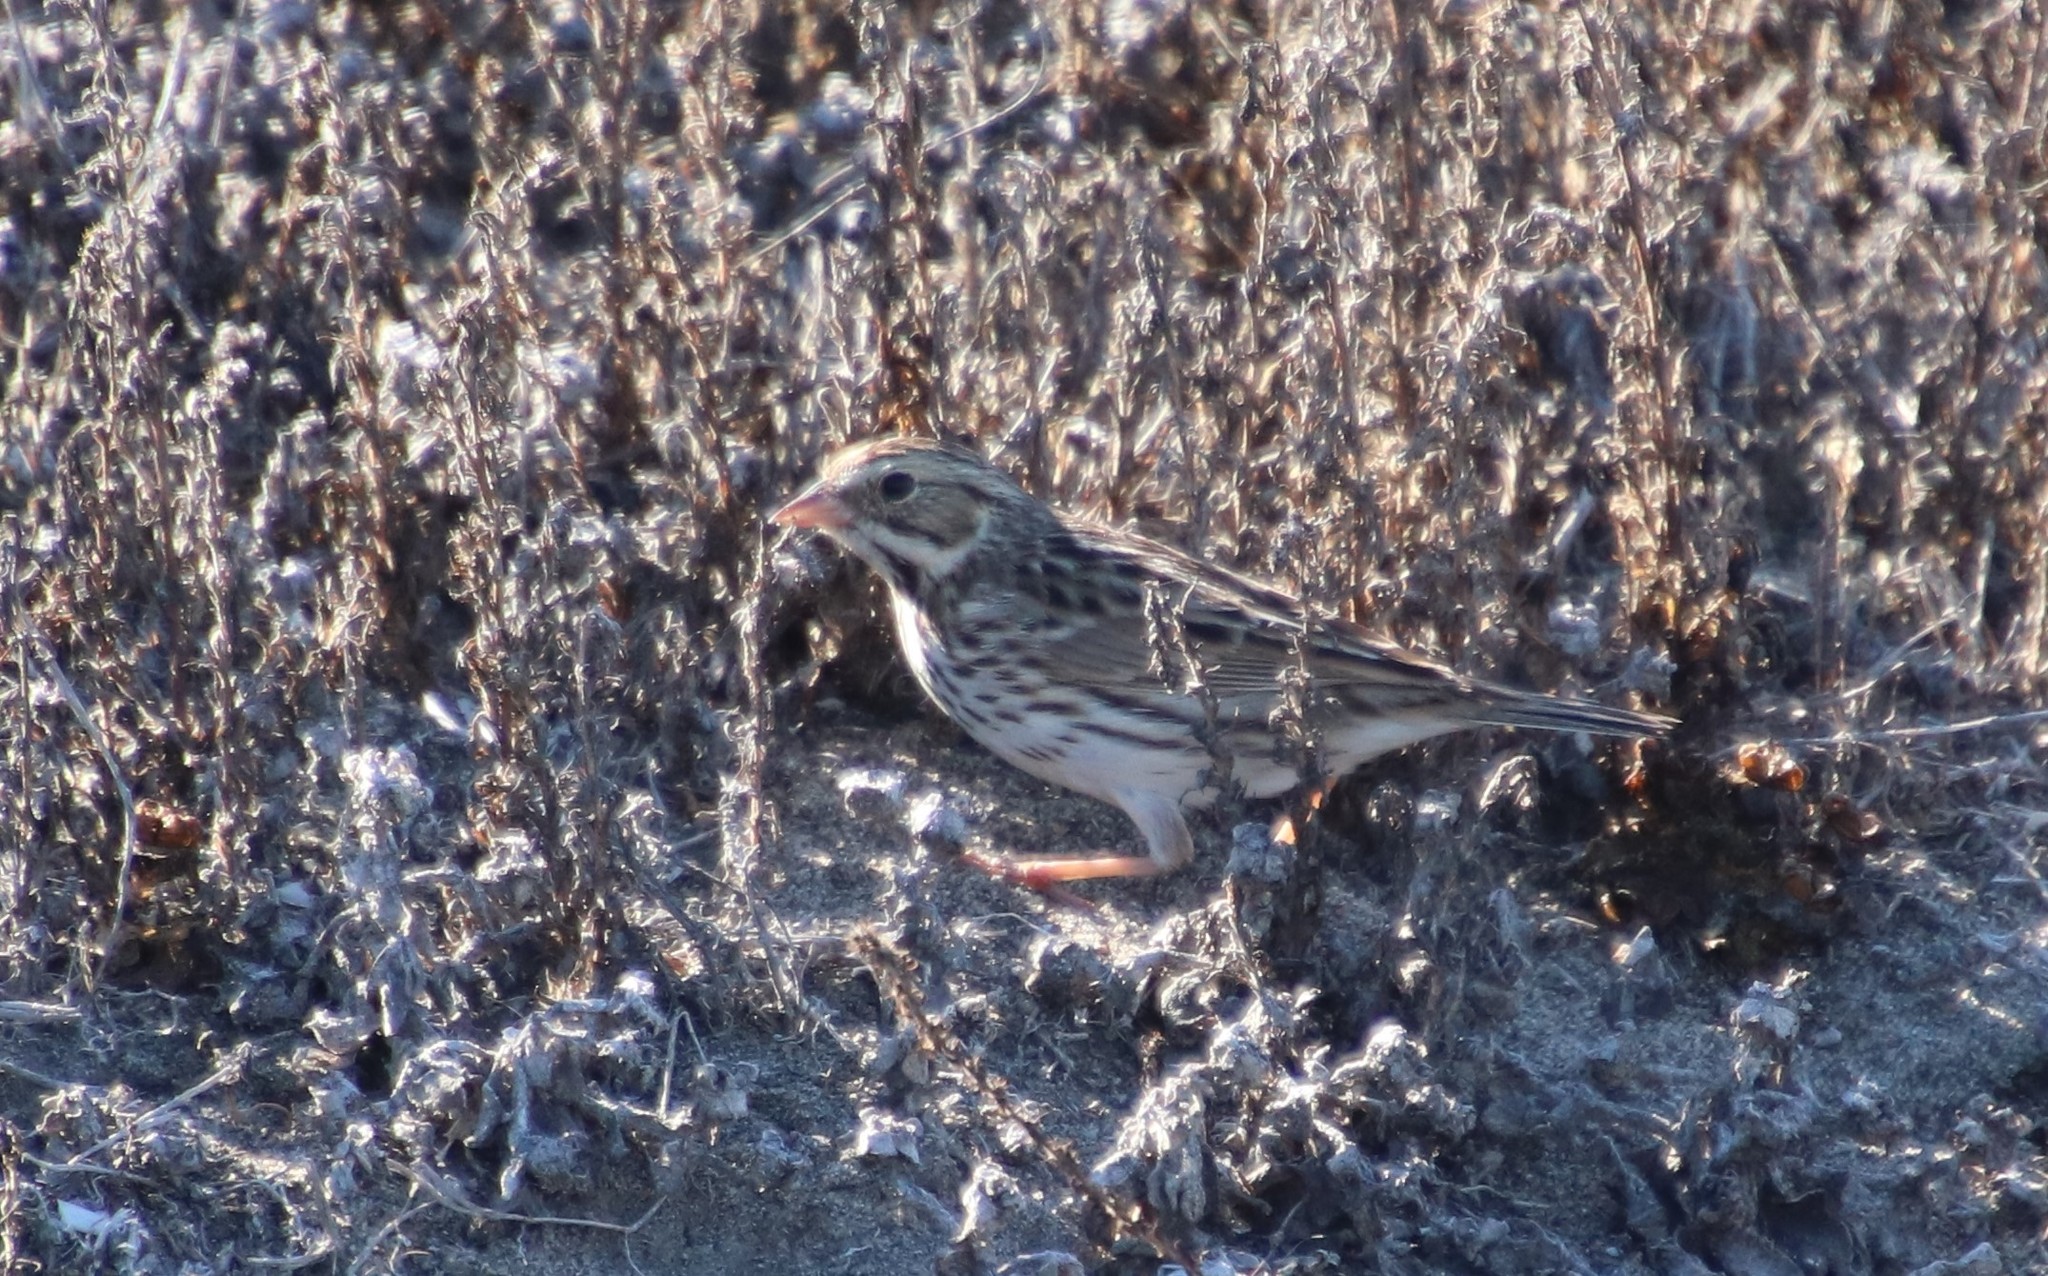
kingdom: Animalia
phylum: Chordata
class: Aves
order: Passeriformes
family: Passerellidae
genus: Passerculus
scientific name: Passerculus sandwichensis
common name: Savannah sparrow
